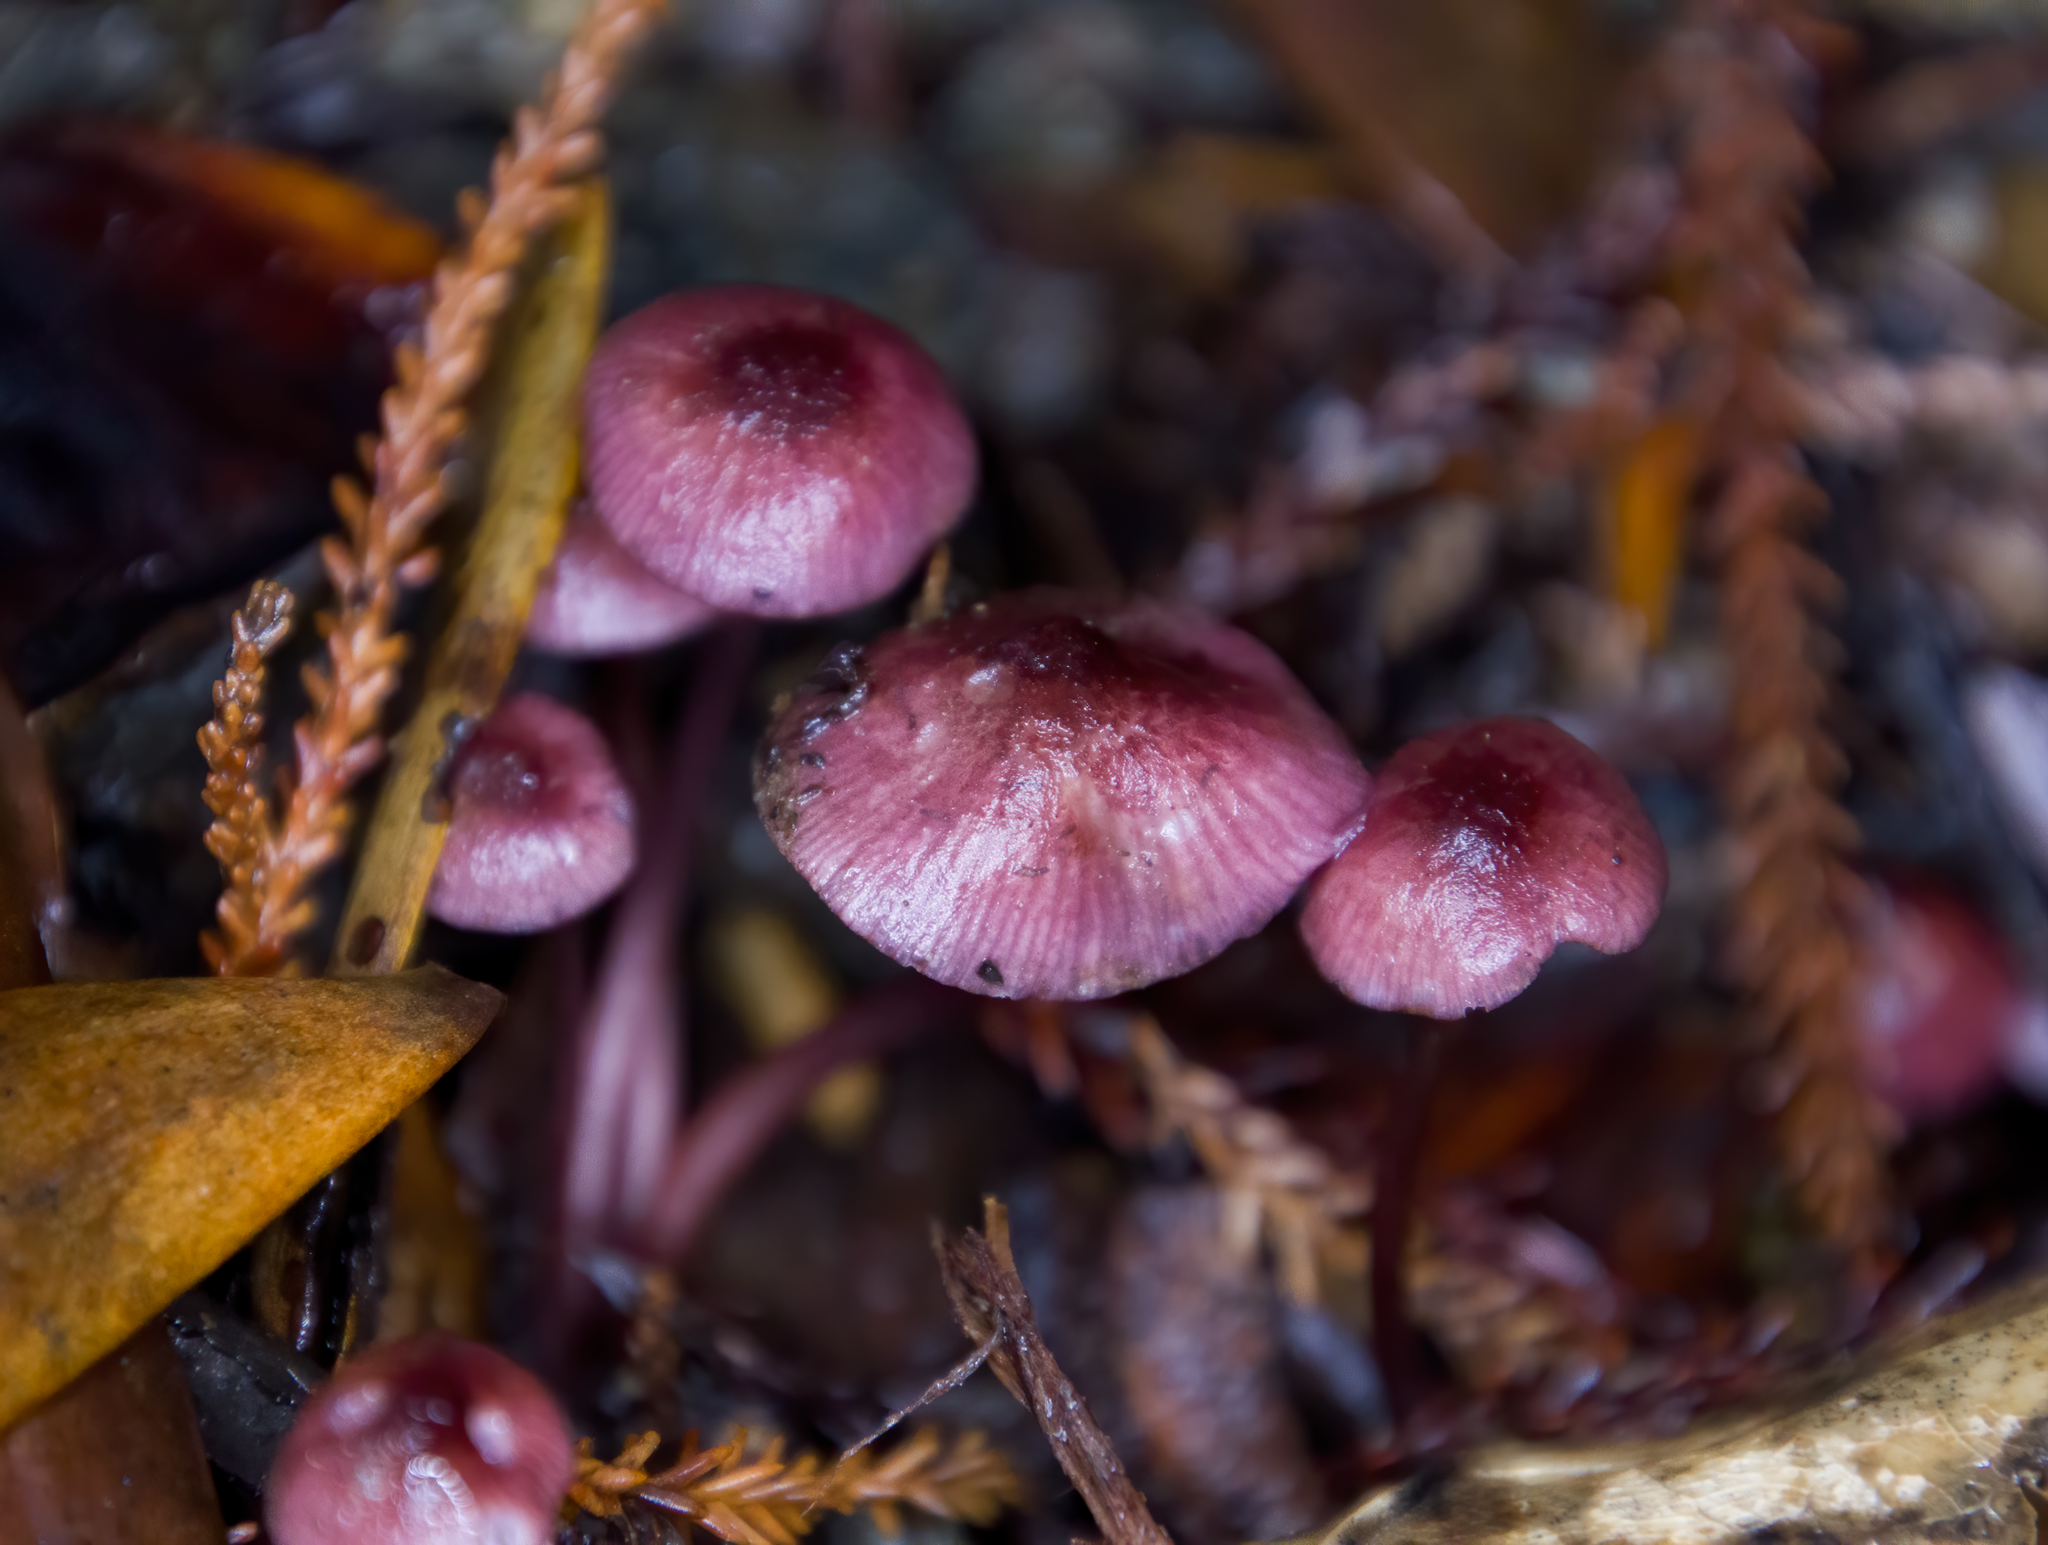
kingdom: Fungi
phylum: Basidiomycota
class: Agaricomycetes
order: Agaricales
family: Mycenaceae
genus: Mycena
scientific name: Mycena rubroglobulosa
